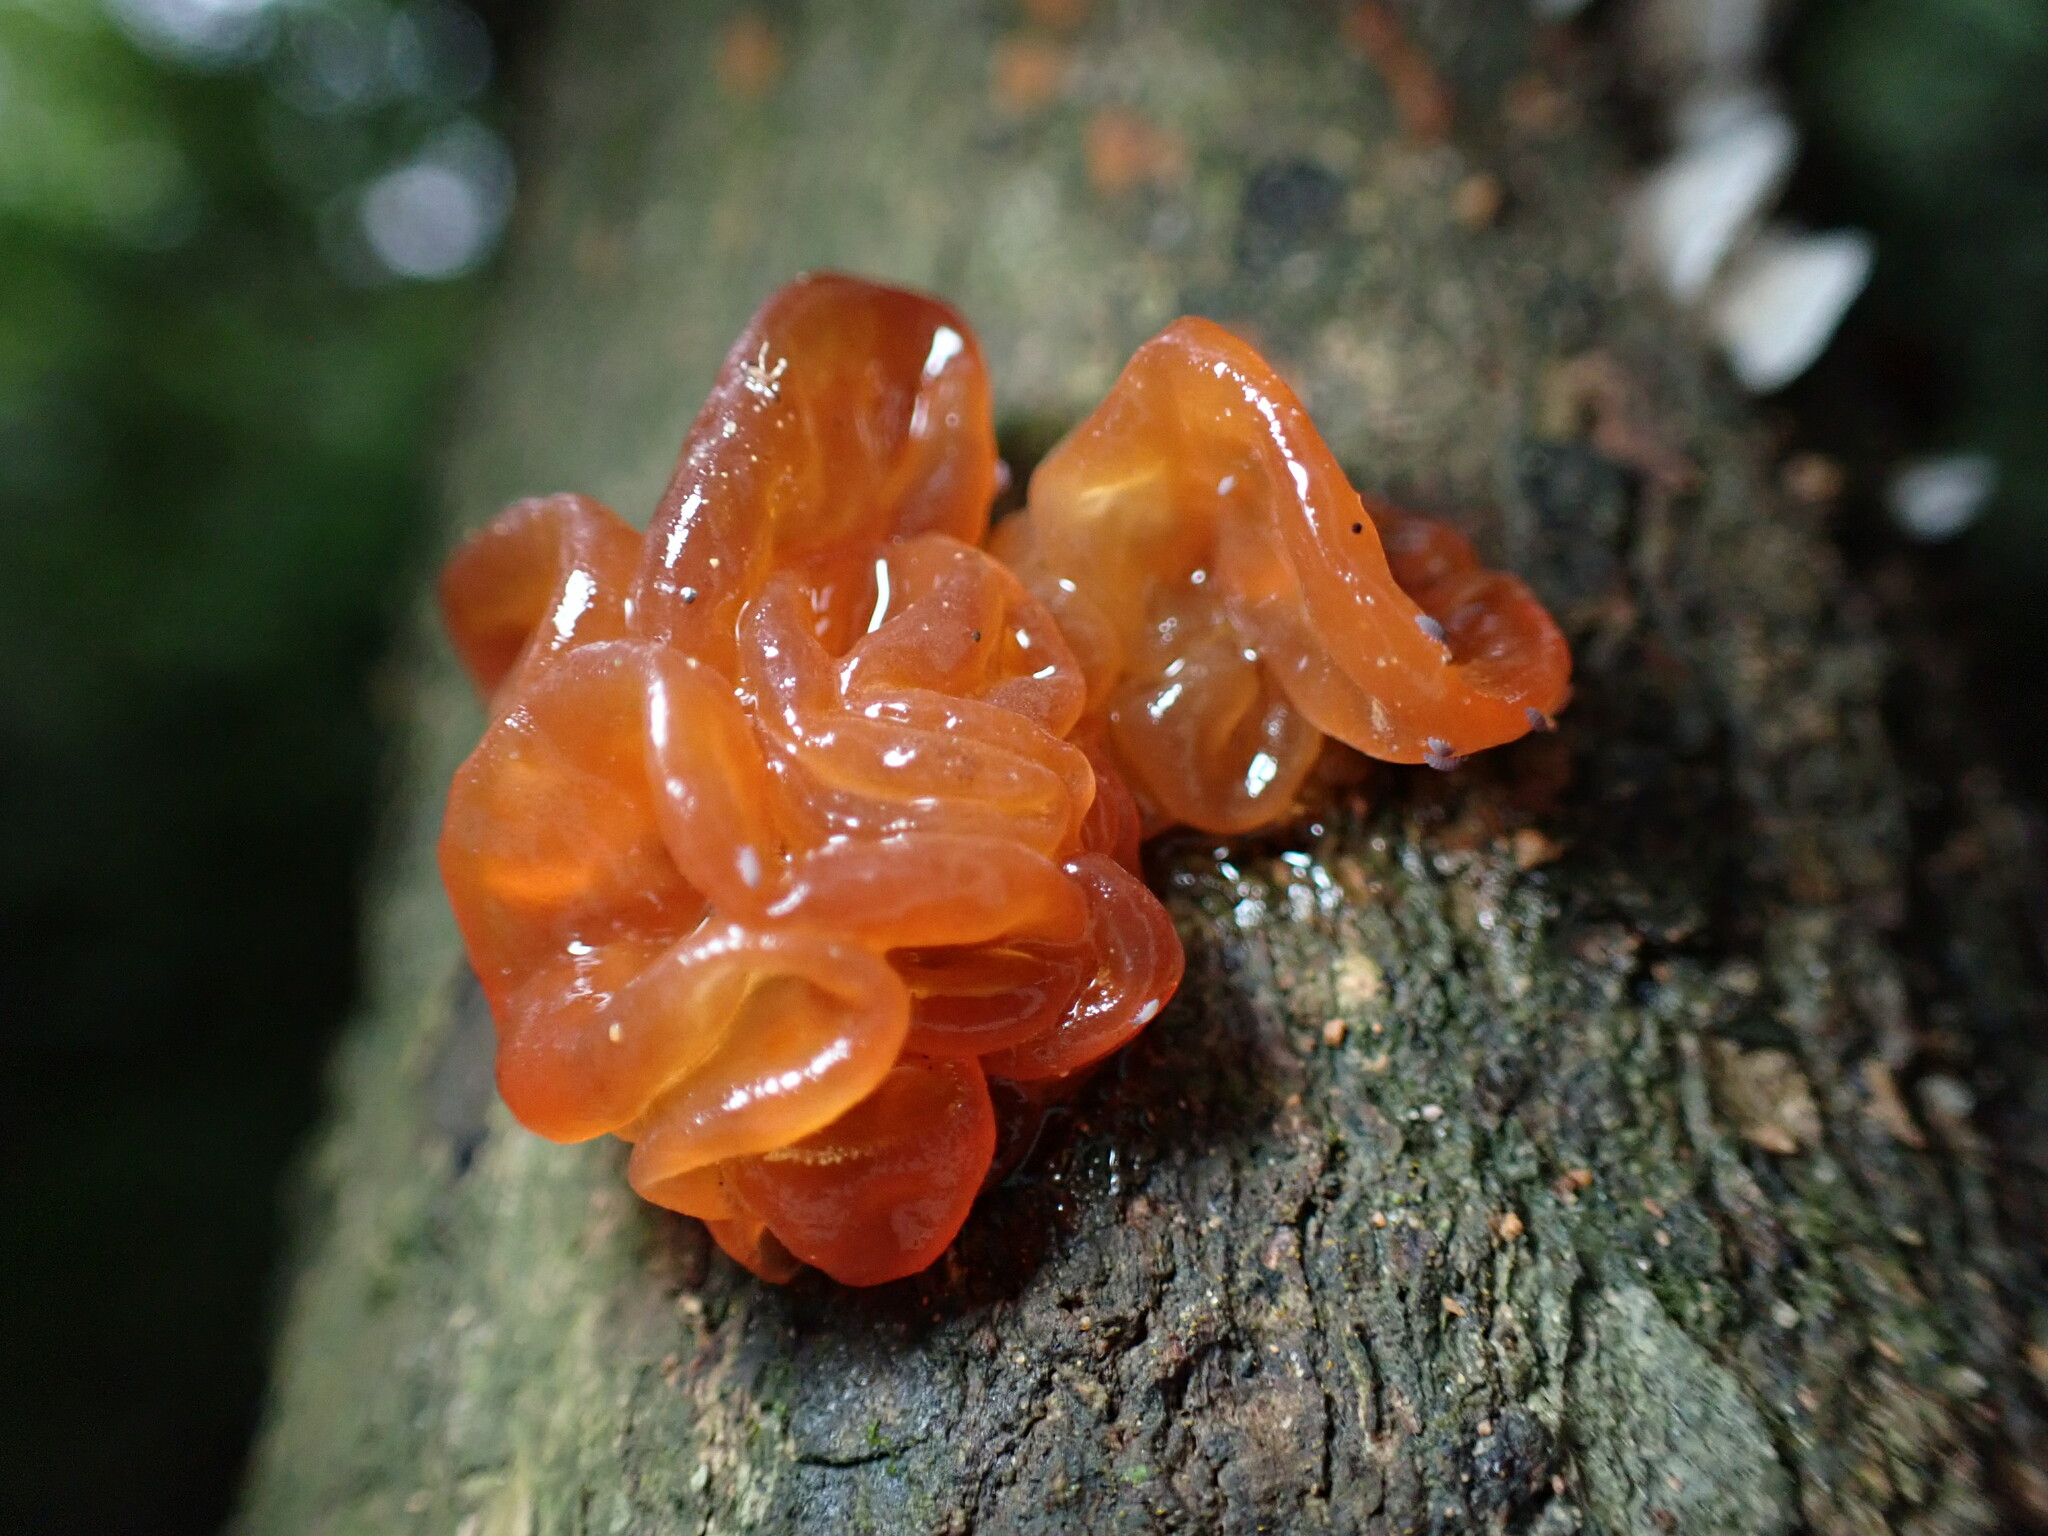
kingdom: Fungi
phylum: Basidiomycota
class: Tremellomycetes
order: Tremellales
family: Sirobasidiaceae
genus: Sirobasidium
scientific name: Sirobasidium magnum
